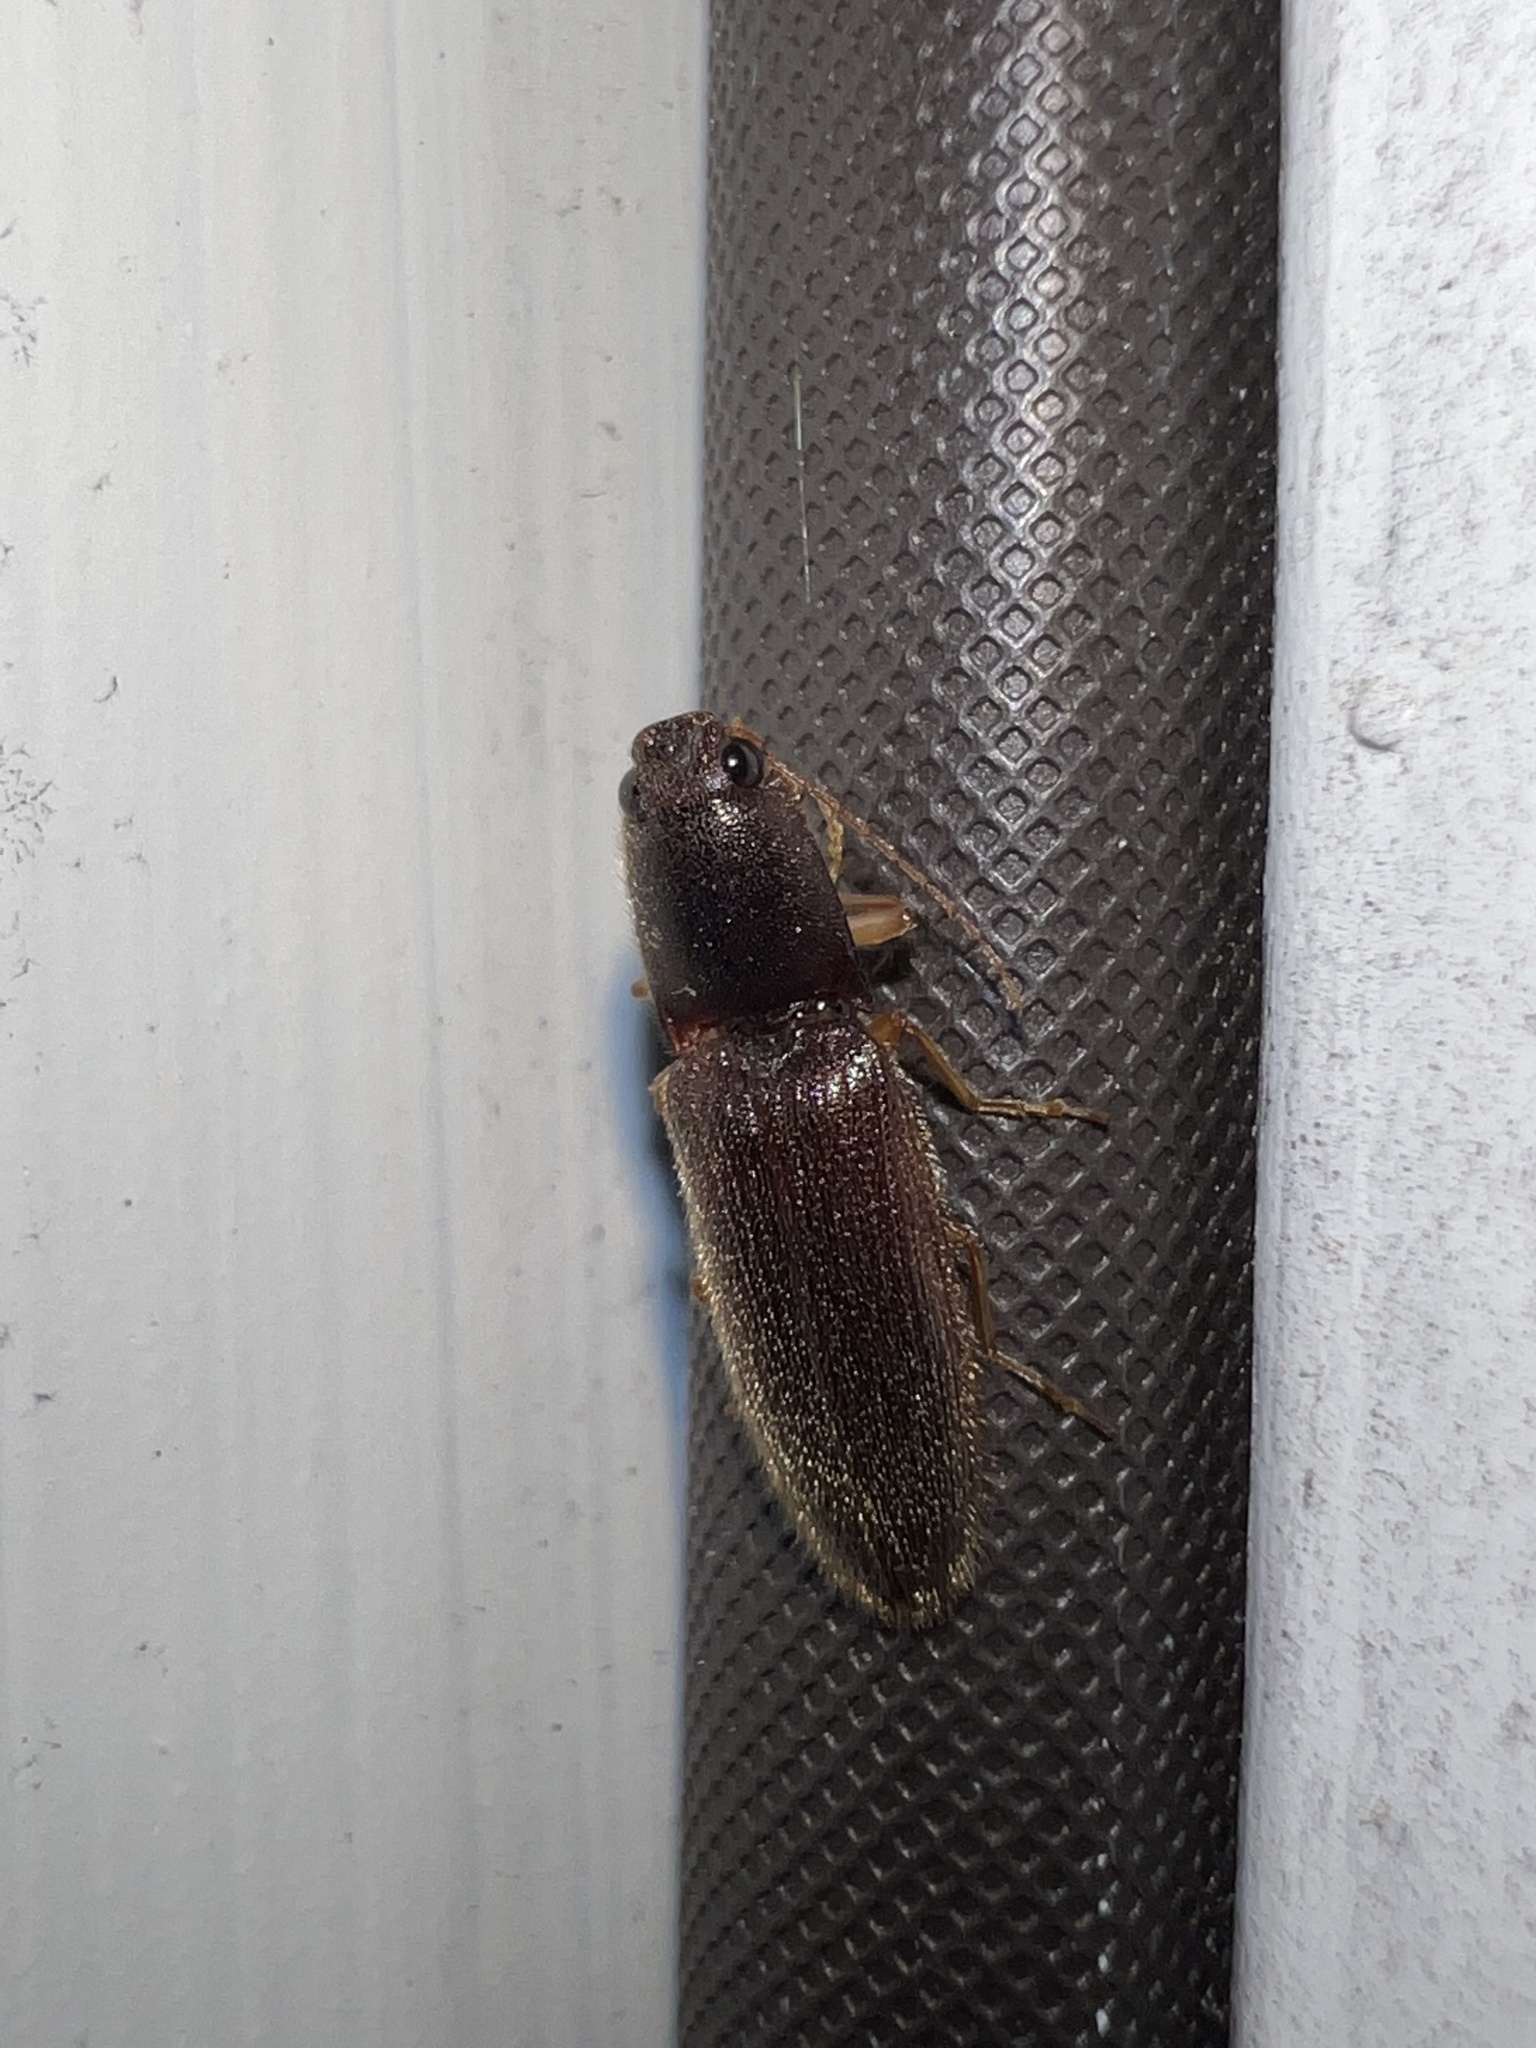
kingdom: Animalia
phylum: Arthropoda
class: Insecta
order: Coleoptera
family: Elateridae
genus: Athous
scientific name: Athous cucullatus
